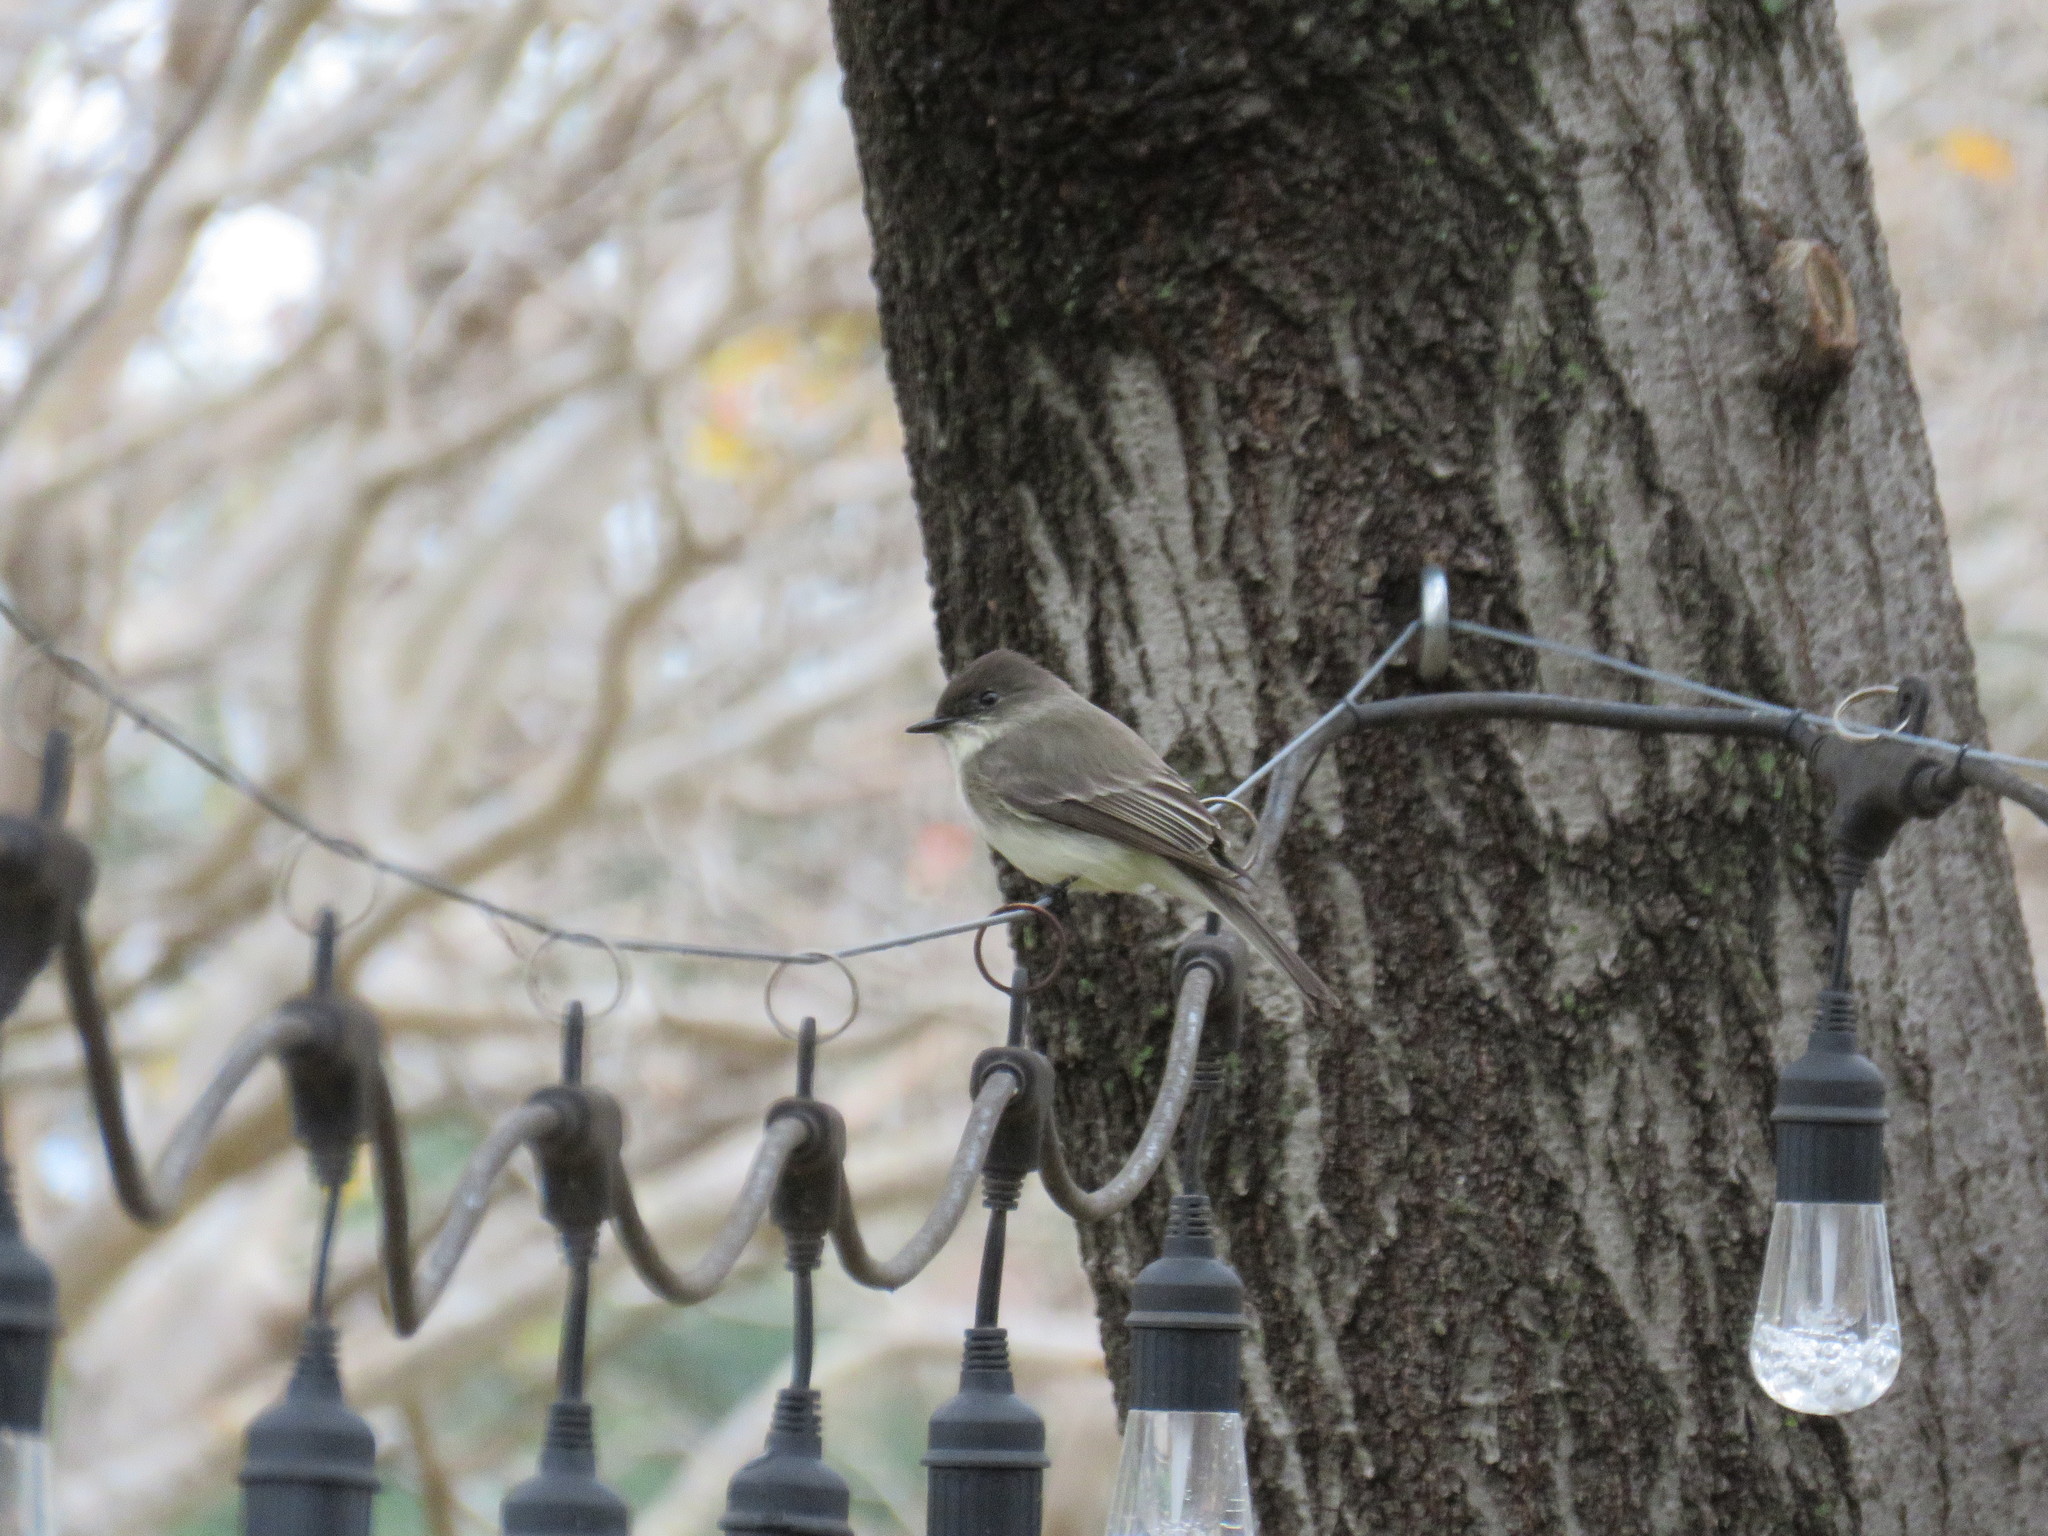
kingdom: Animalia
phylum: Chordata
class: Aves
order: Passeriformes
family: Tyrannidae
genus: Sayornis
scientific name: Sayornis phoebe
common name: Eastern phoebe
